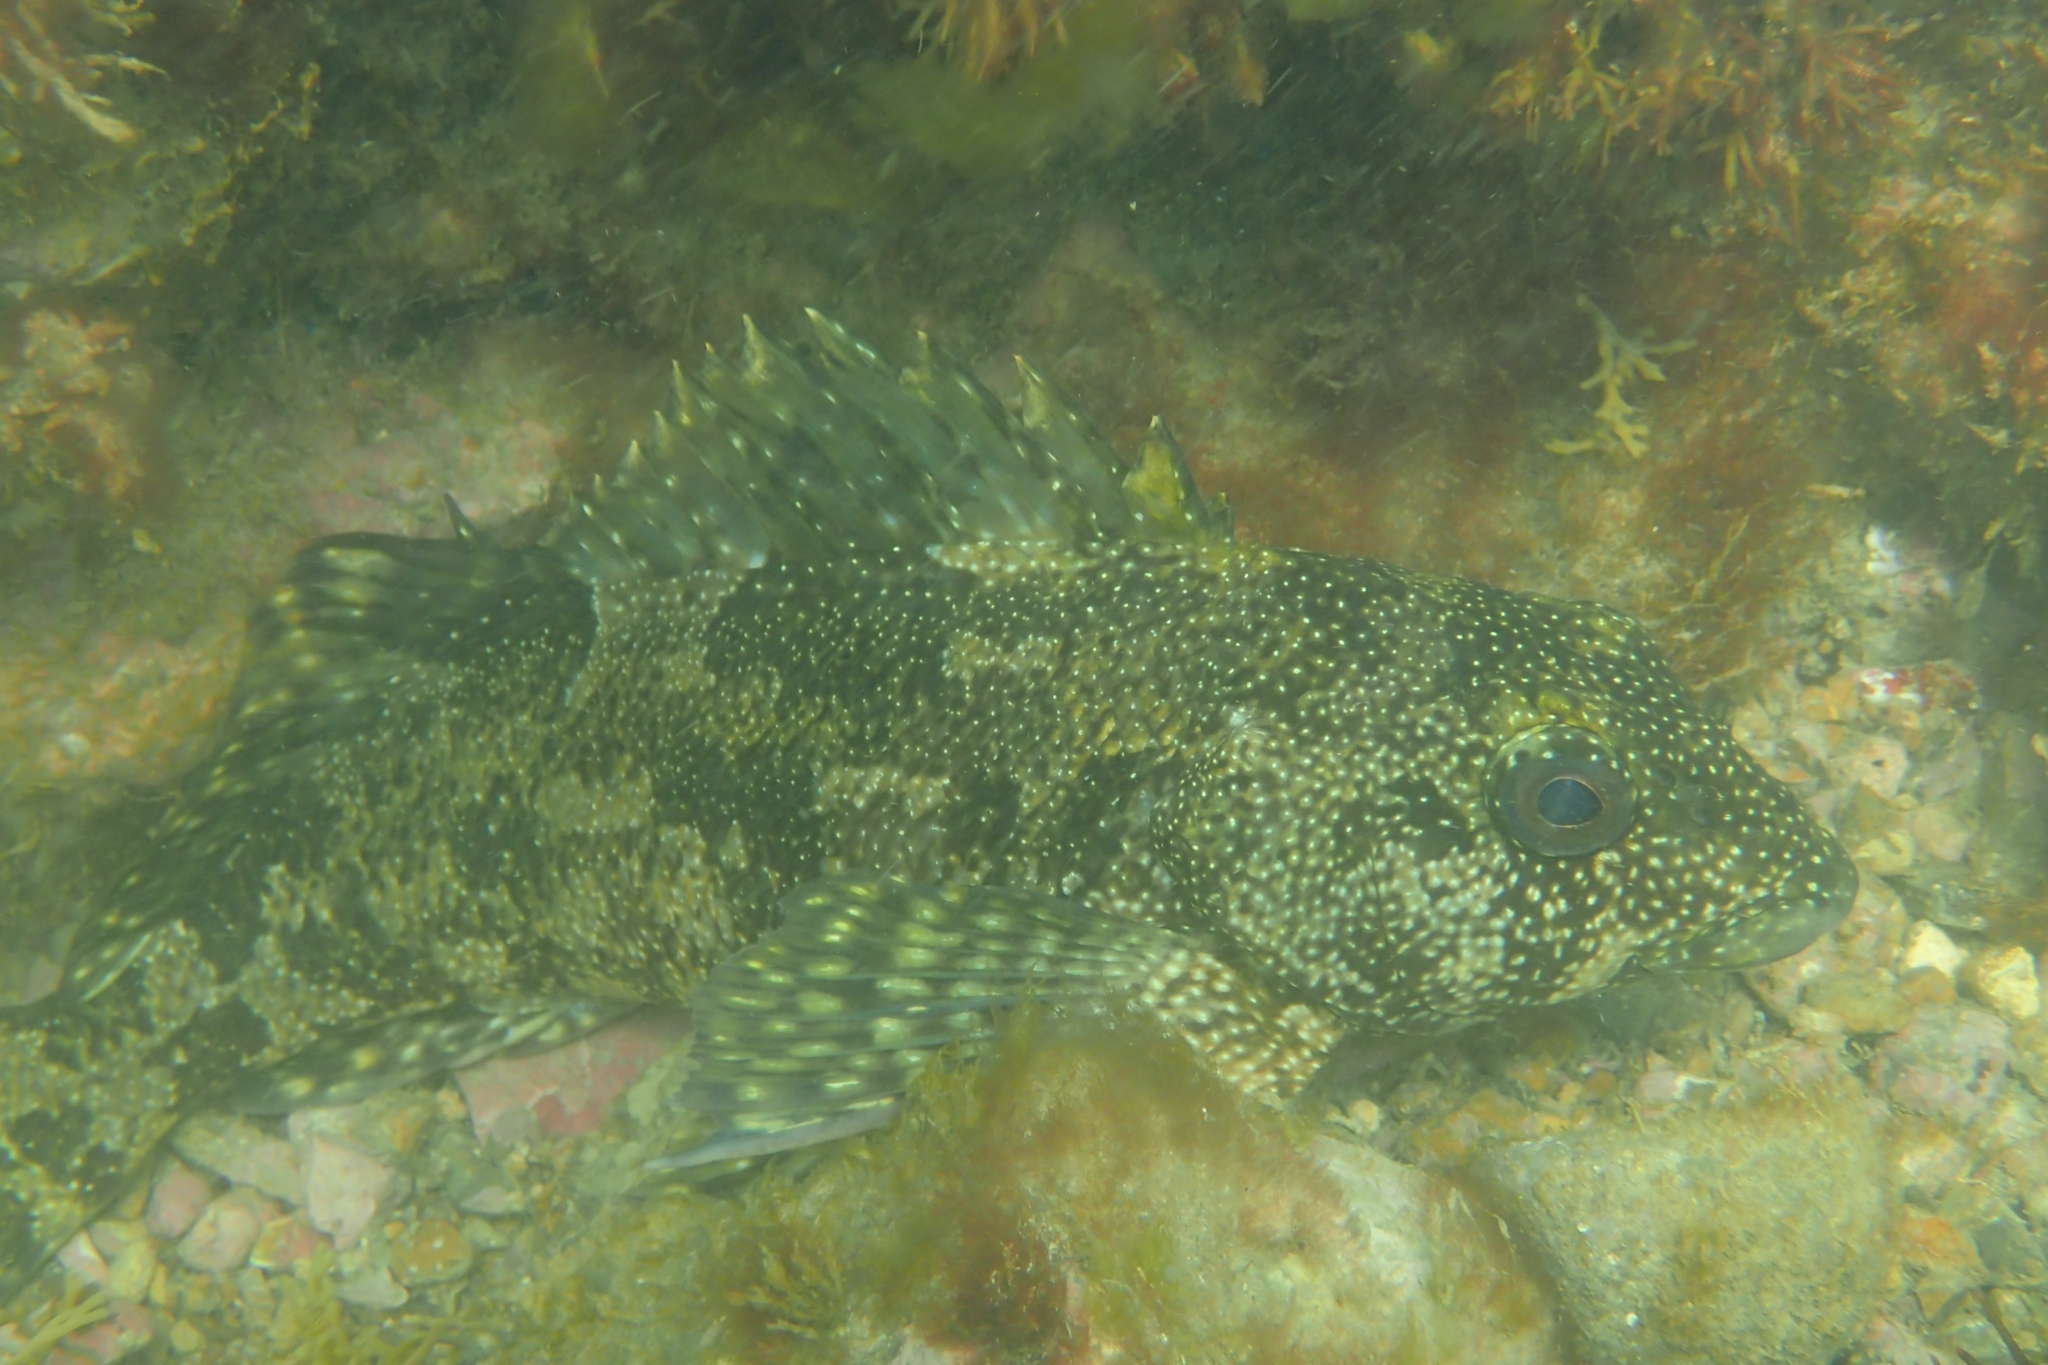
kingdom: Animalia
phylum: Chordata
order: Perciformes
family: Chironemidae
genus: Chironemus
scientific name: Chironemus marmoratus
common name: Kelpfish
